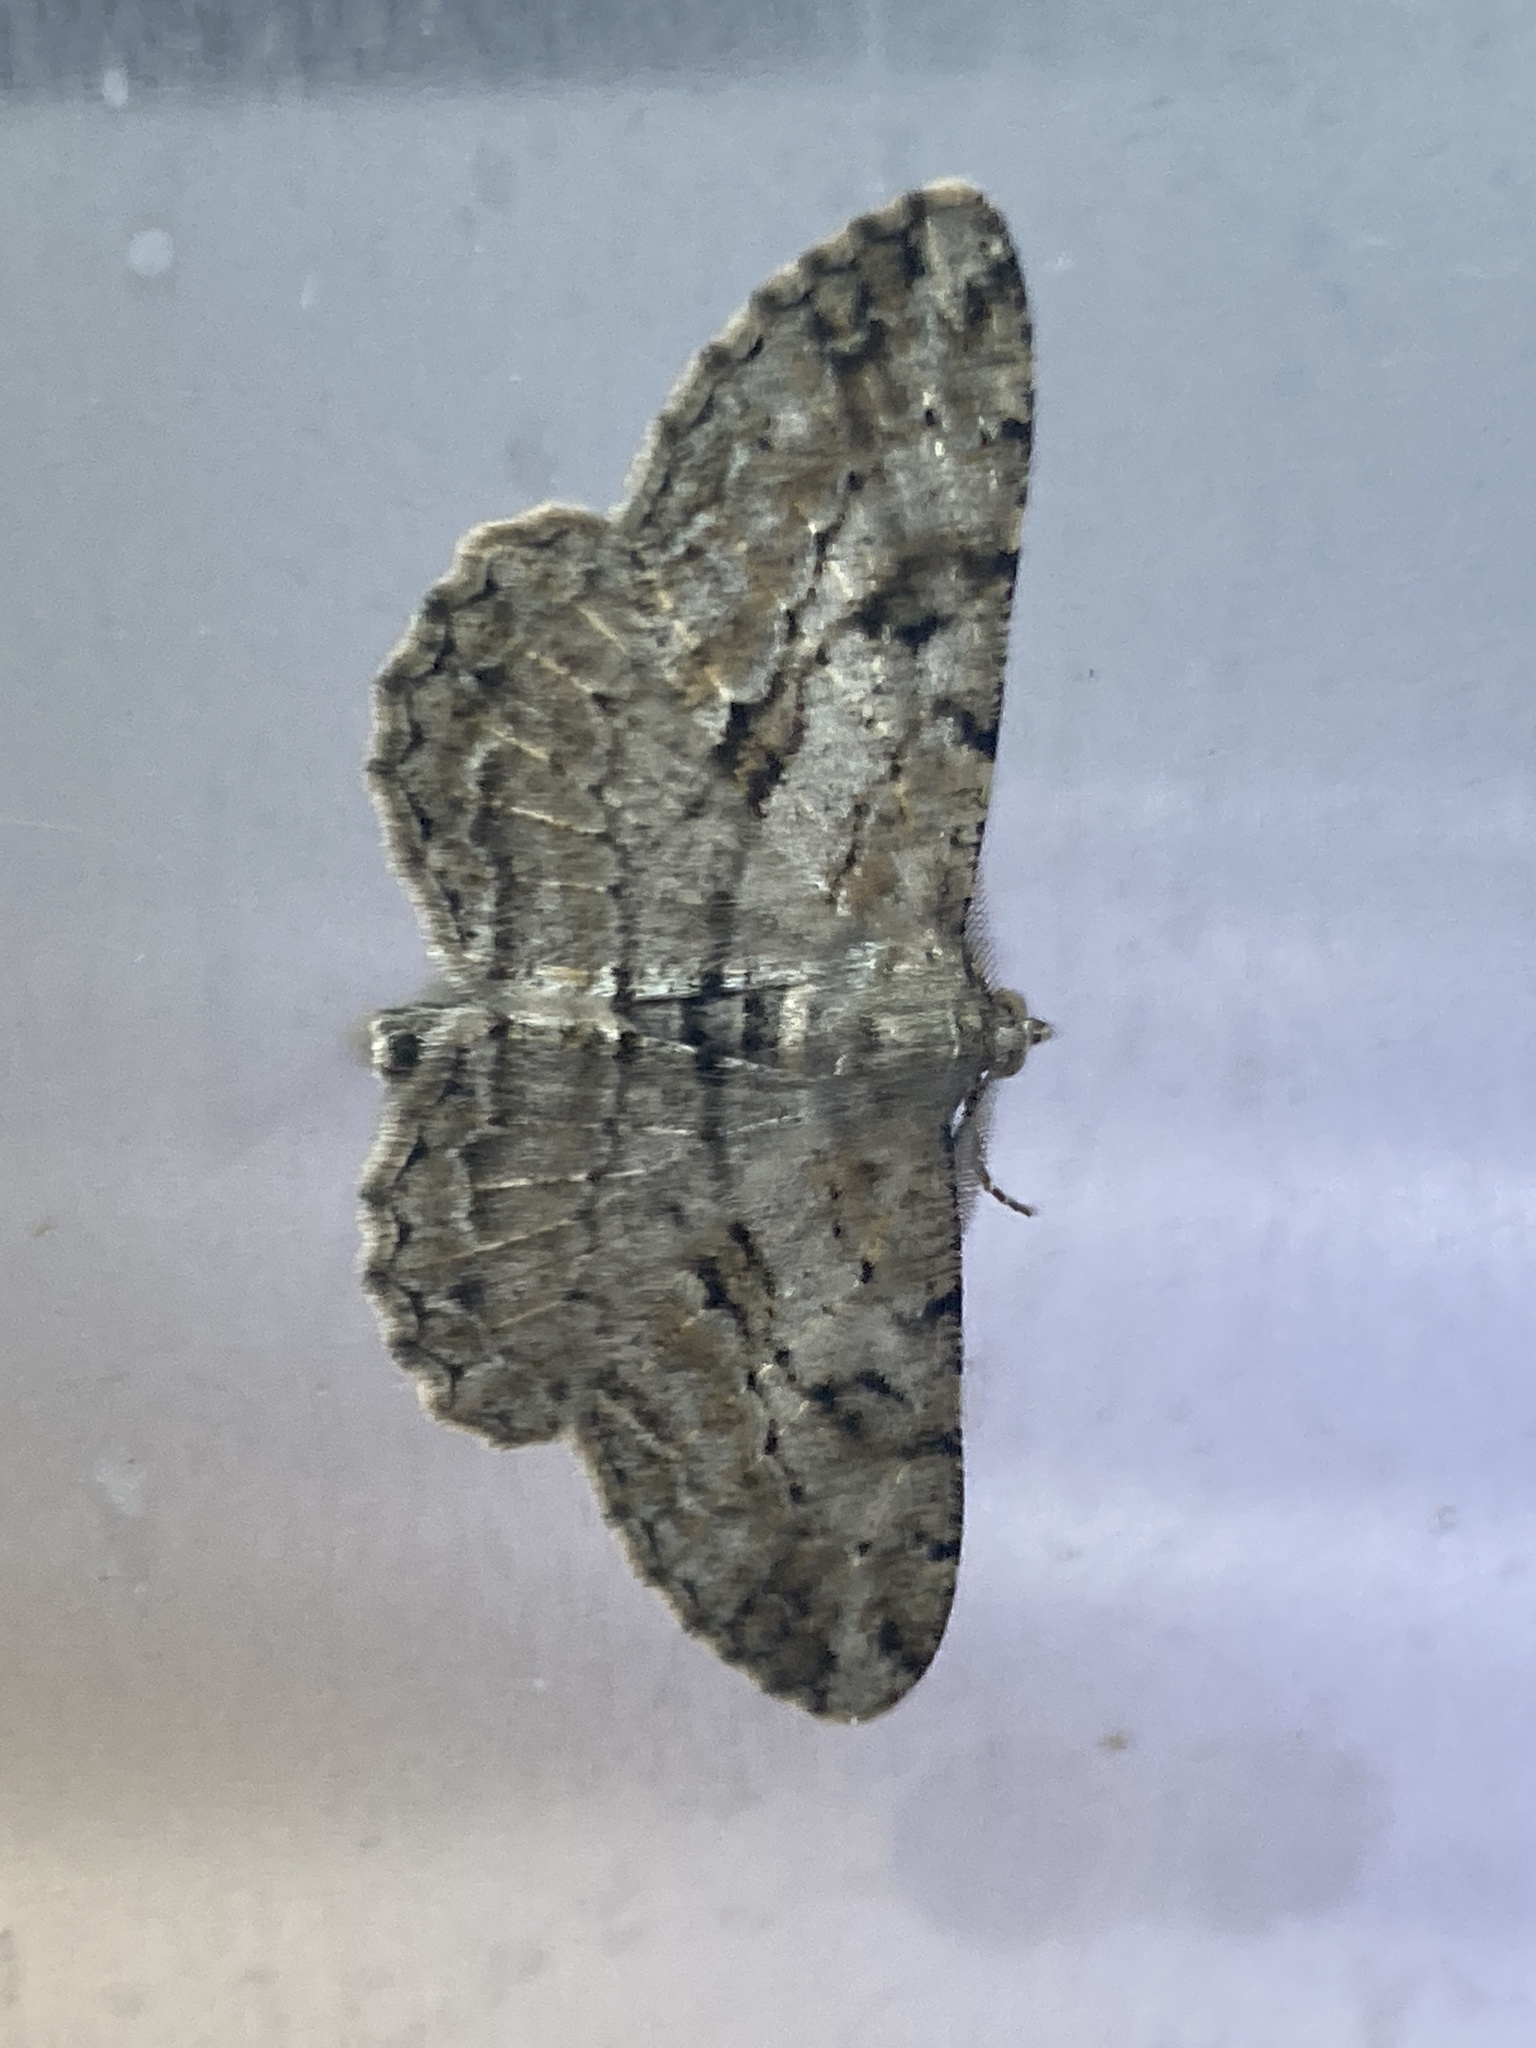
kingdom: Animalia
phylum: Arthropoda
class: Insecta
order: Lepidoptera
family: Geometridae
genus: Peribatodes
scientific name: Peribatodes rhomboidaria
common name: Willow beauty
